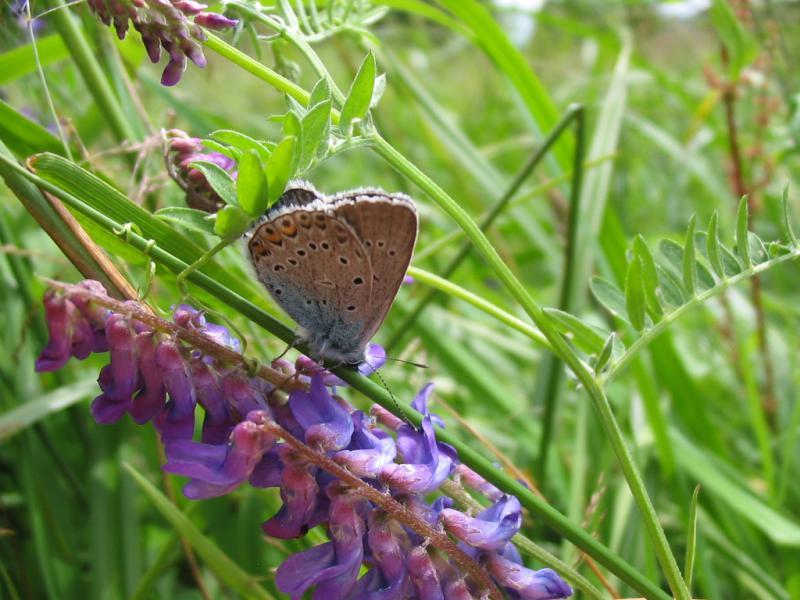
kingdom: Animalia
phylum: Arthropoda
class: Insecta
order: Lepidoptera
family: Lycaenidae
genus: Plebejus
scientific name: Plebejus amanda
